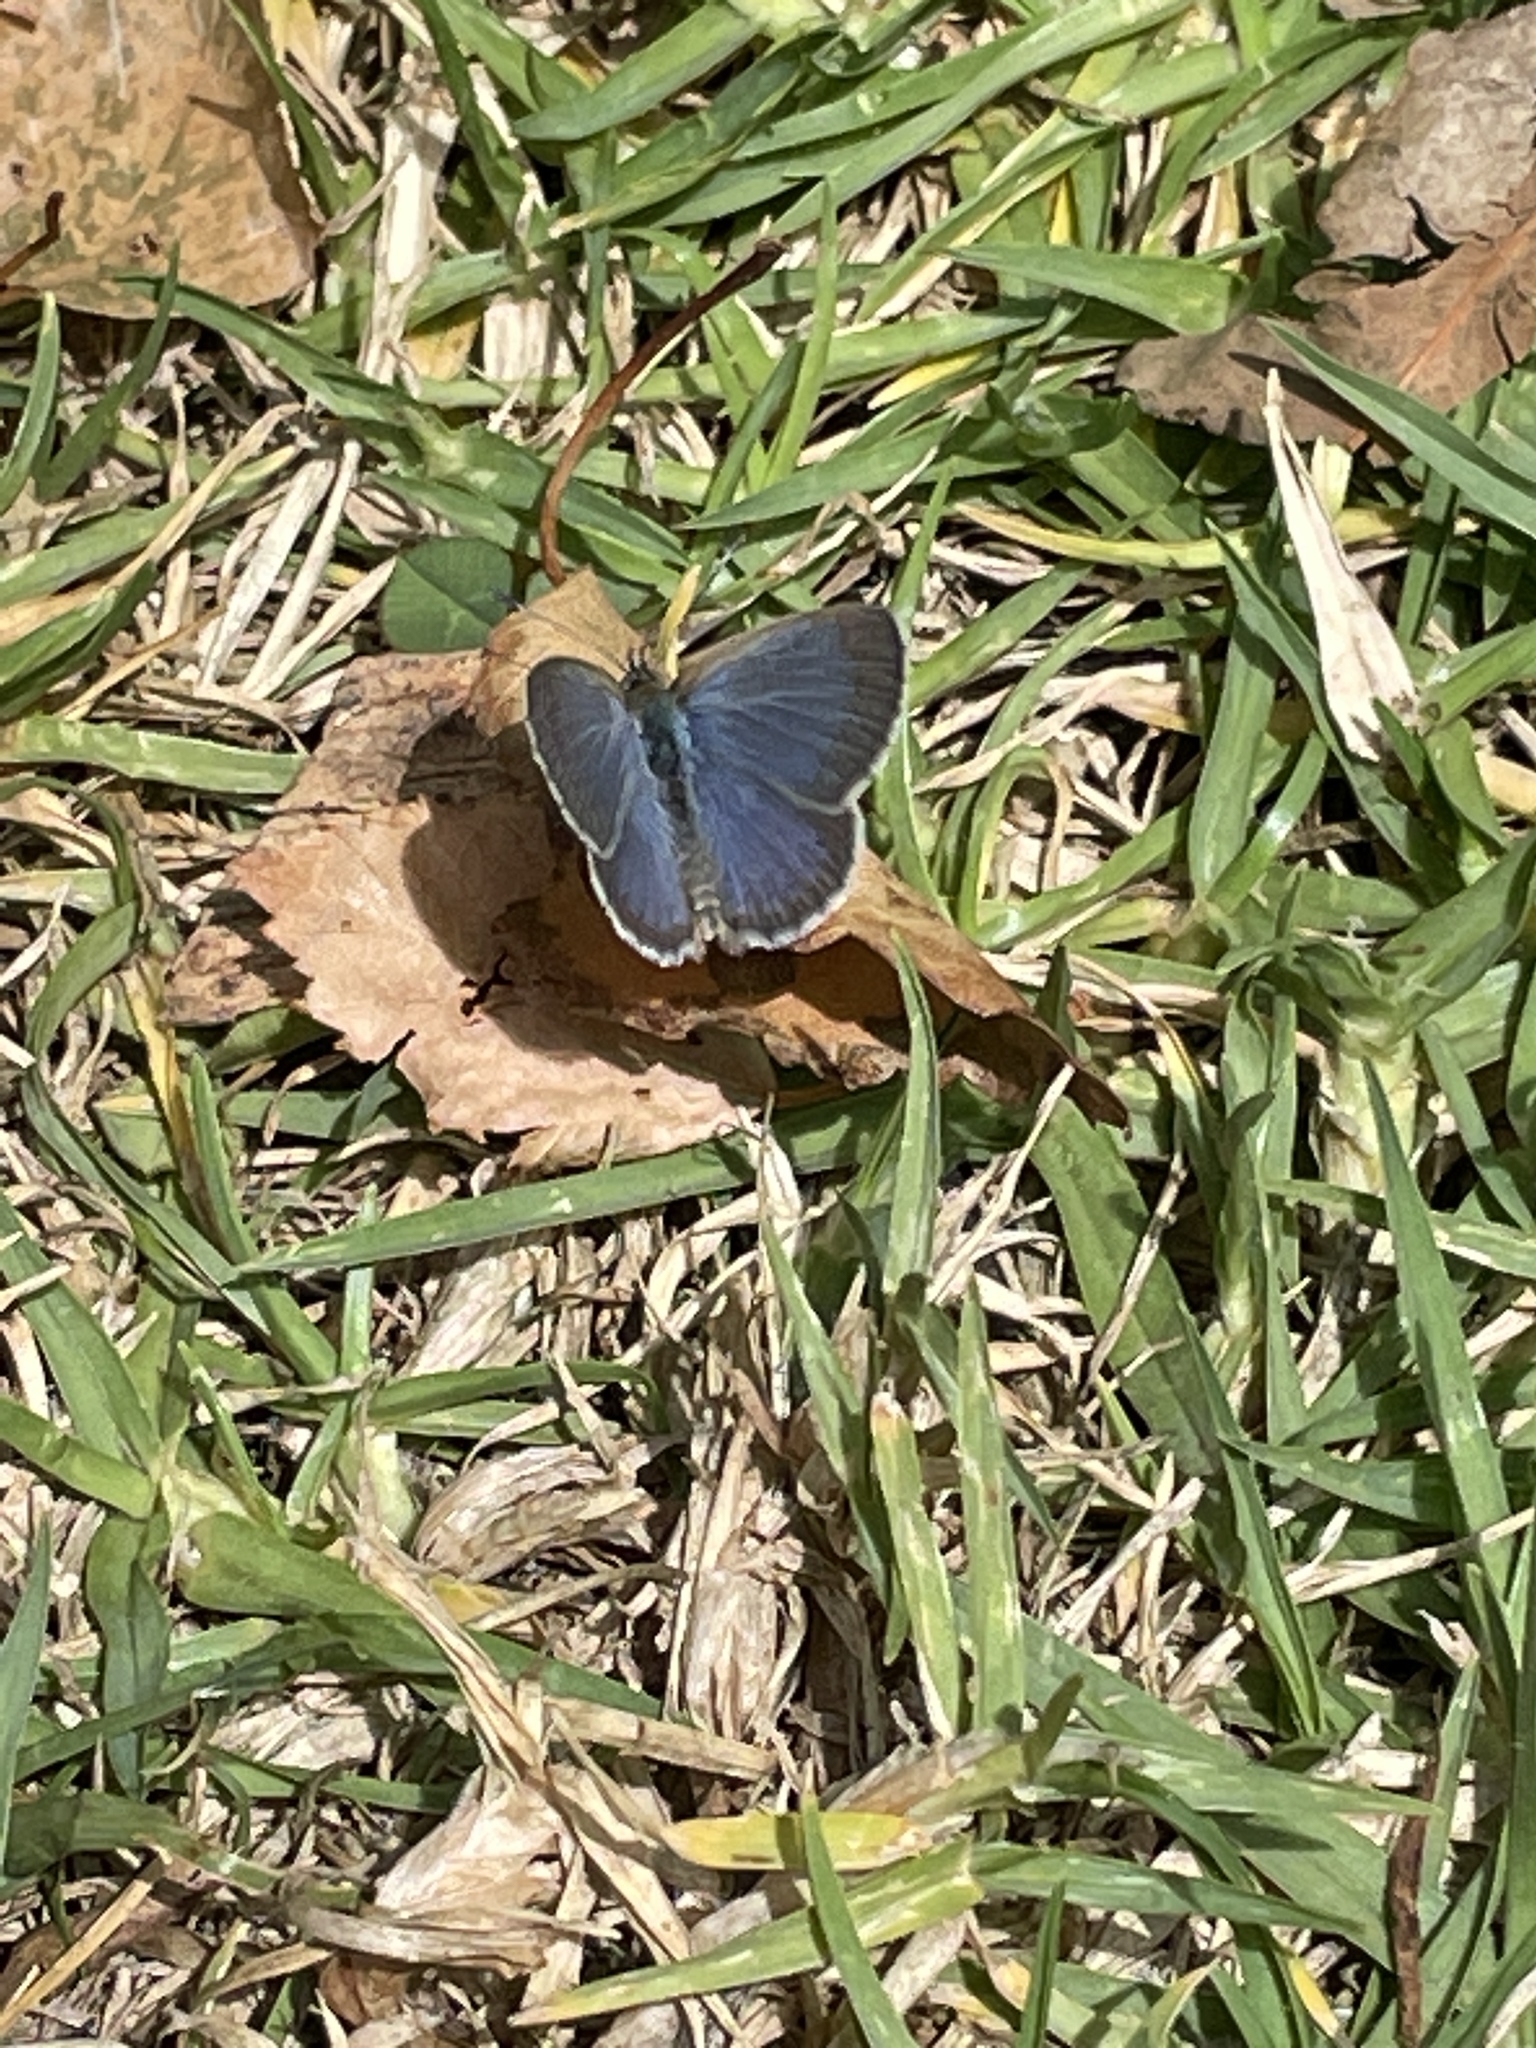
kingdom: Animalia
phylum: Arthropoda
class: Insecta
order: Lepidoptera
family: Lycaenidae
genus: Zizina
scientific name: Zizina labradus
